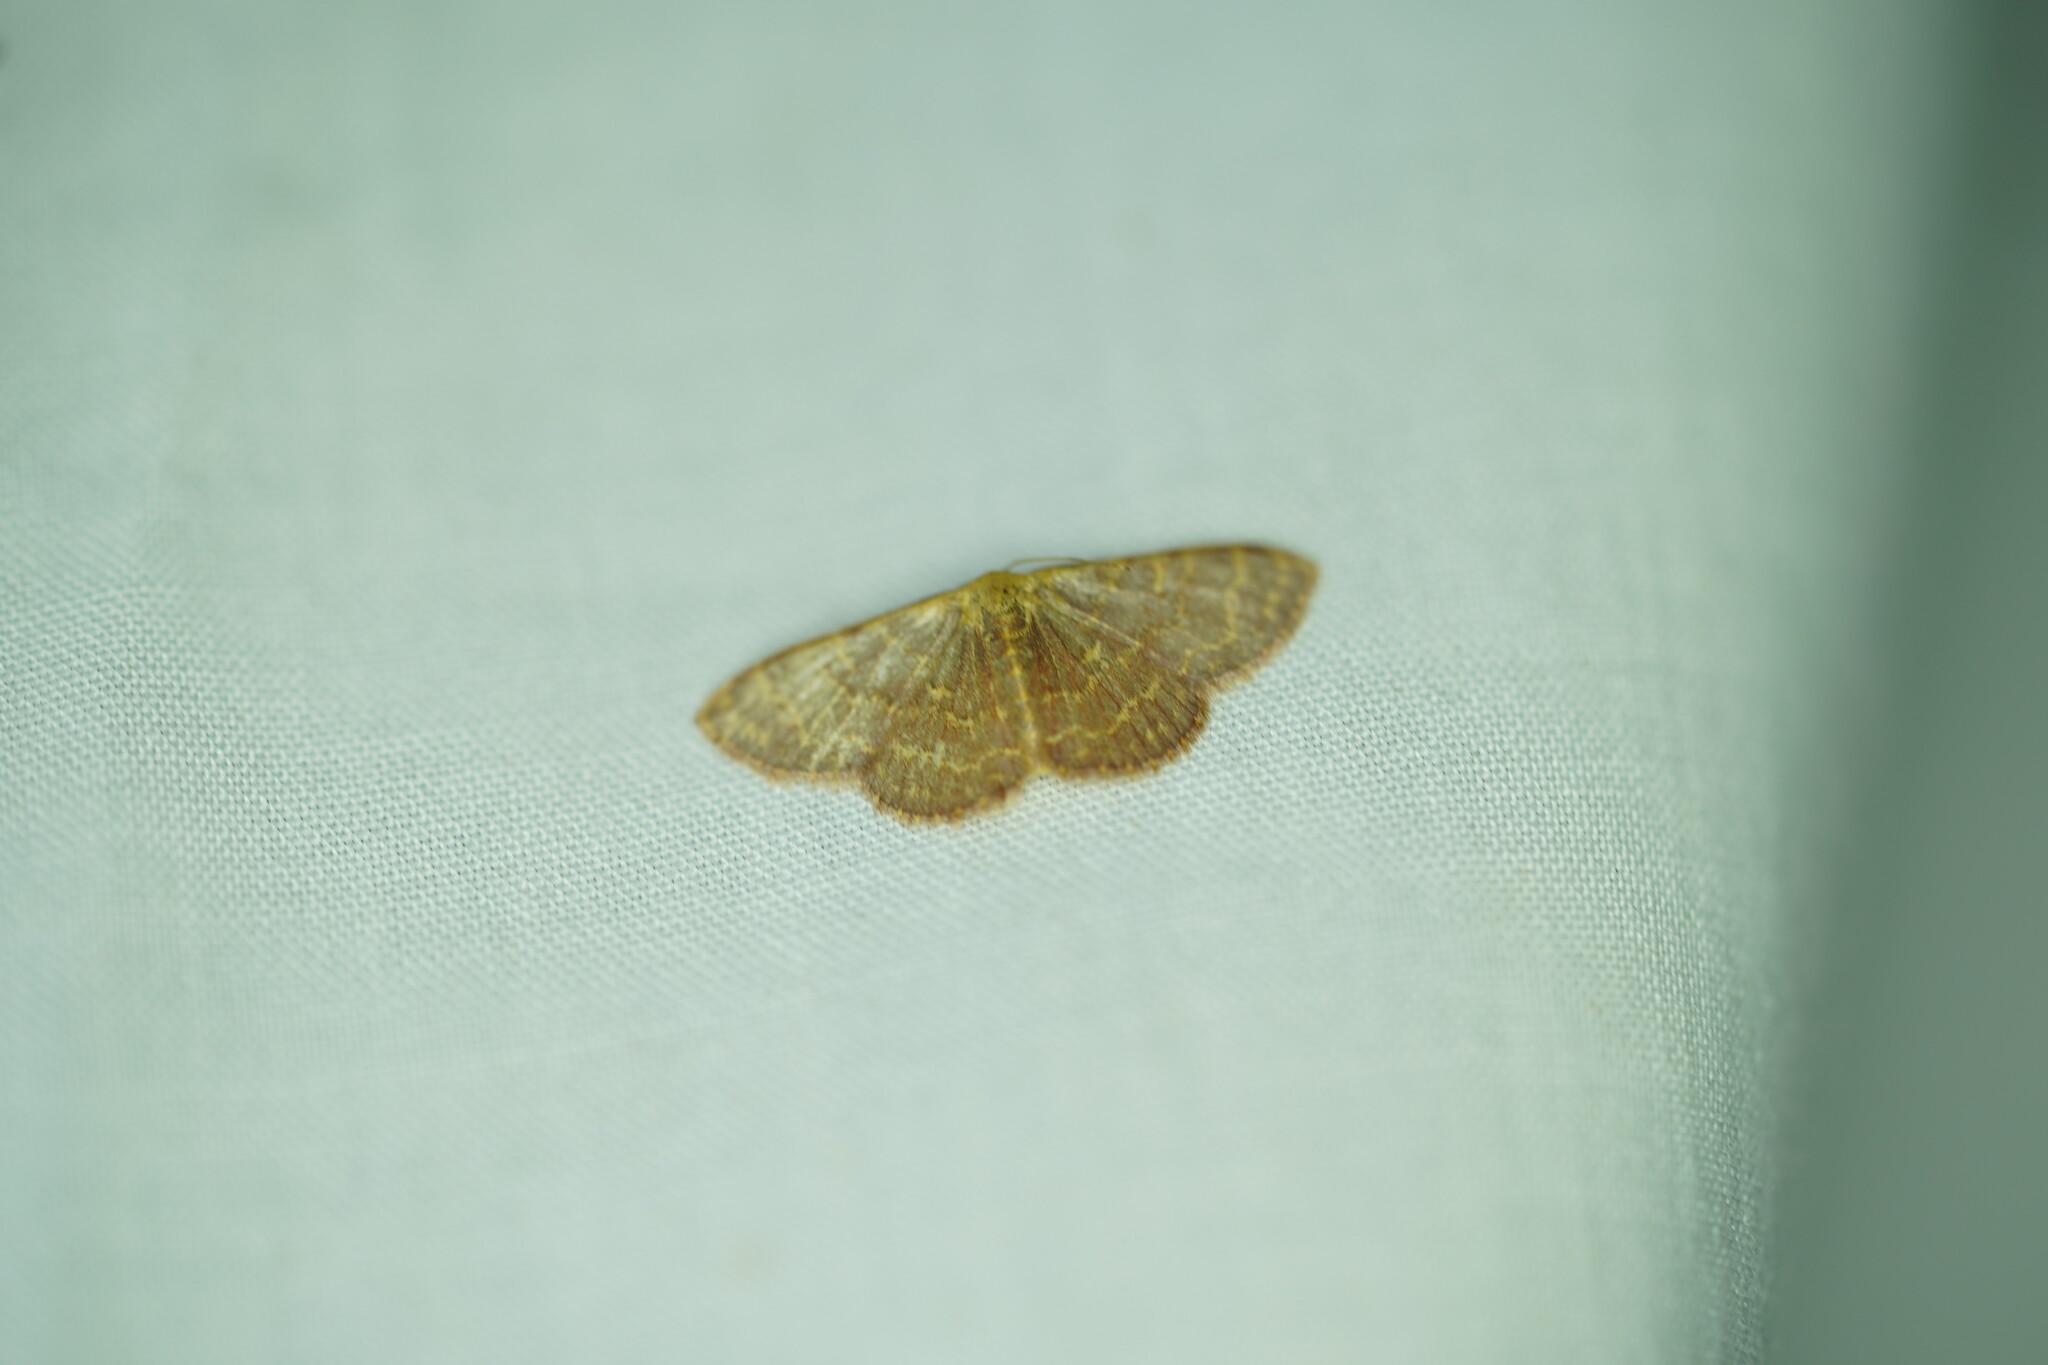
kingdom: Animalia
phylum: Arthropoda
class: Insecta
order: Lepidoptera
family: Geometridae
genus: Leptostales
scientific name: Leptostales pannaria
